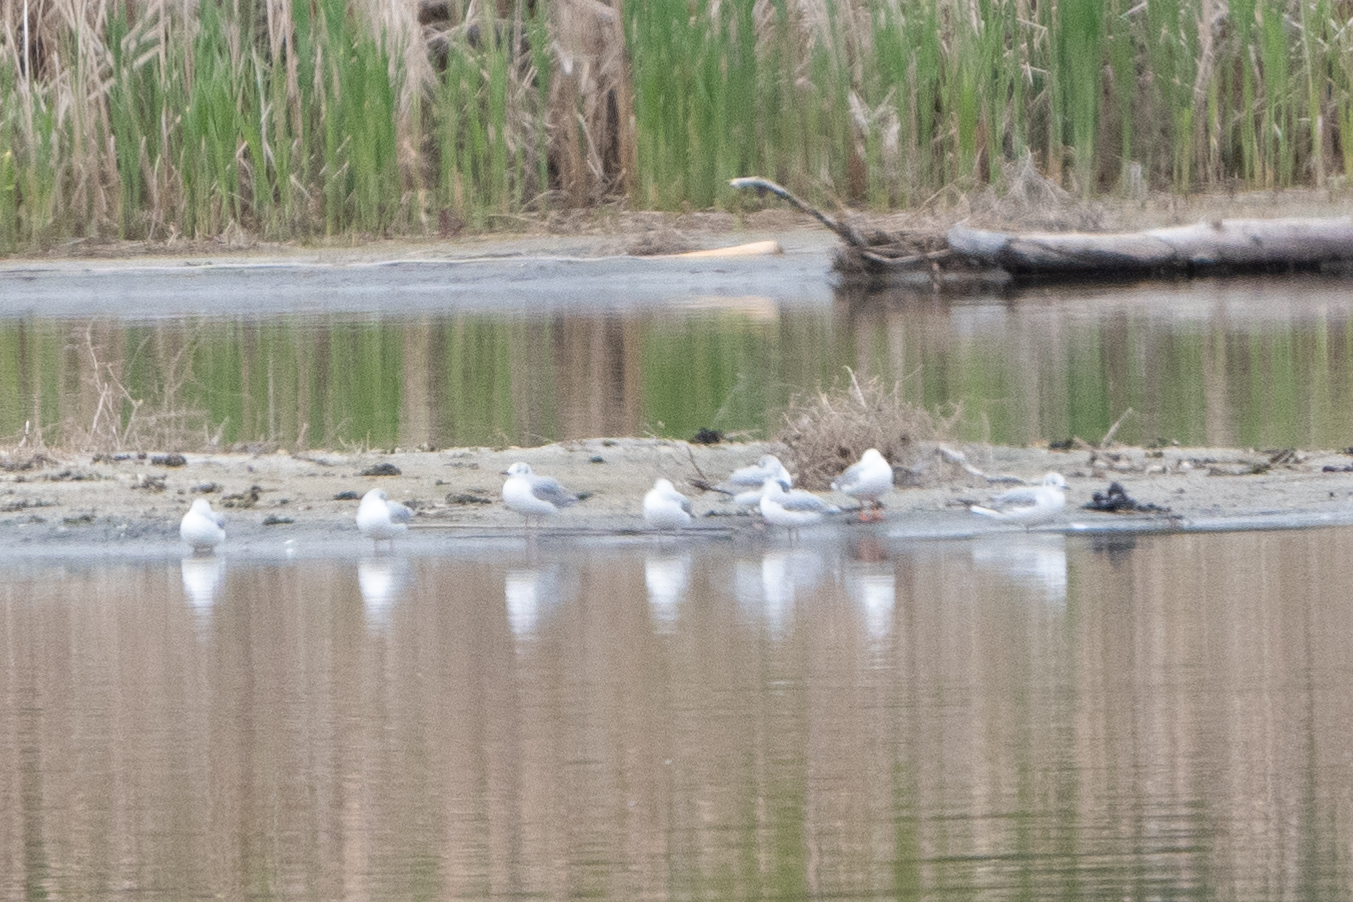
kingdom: Animalia
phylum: Chordata
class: Aves
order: Charadriiformes
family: Laridae
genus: Chroicocephalus
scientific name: Chroicocephalus philadelphia
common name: Bonaparte's gull
